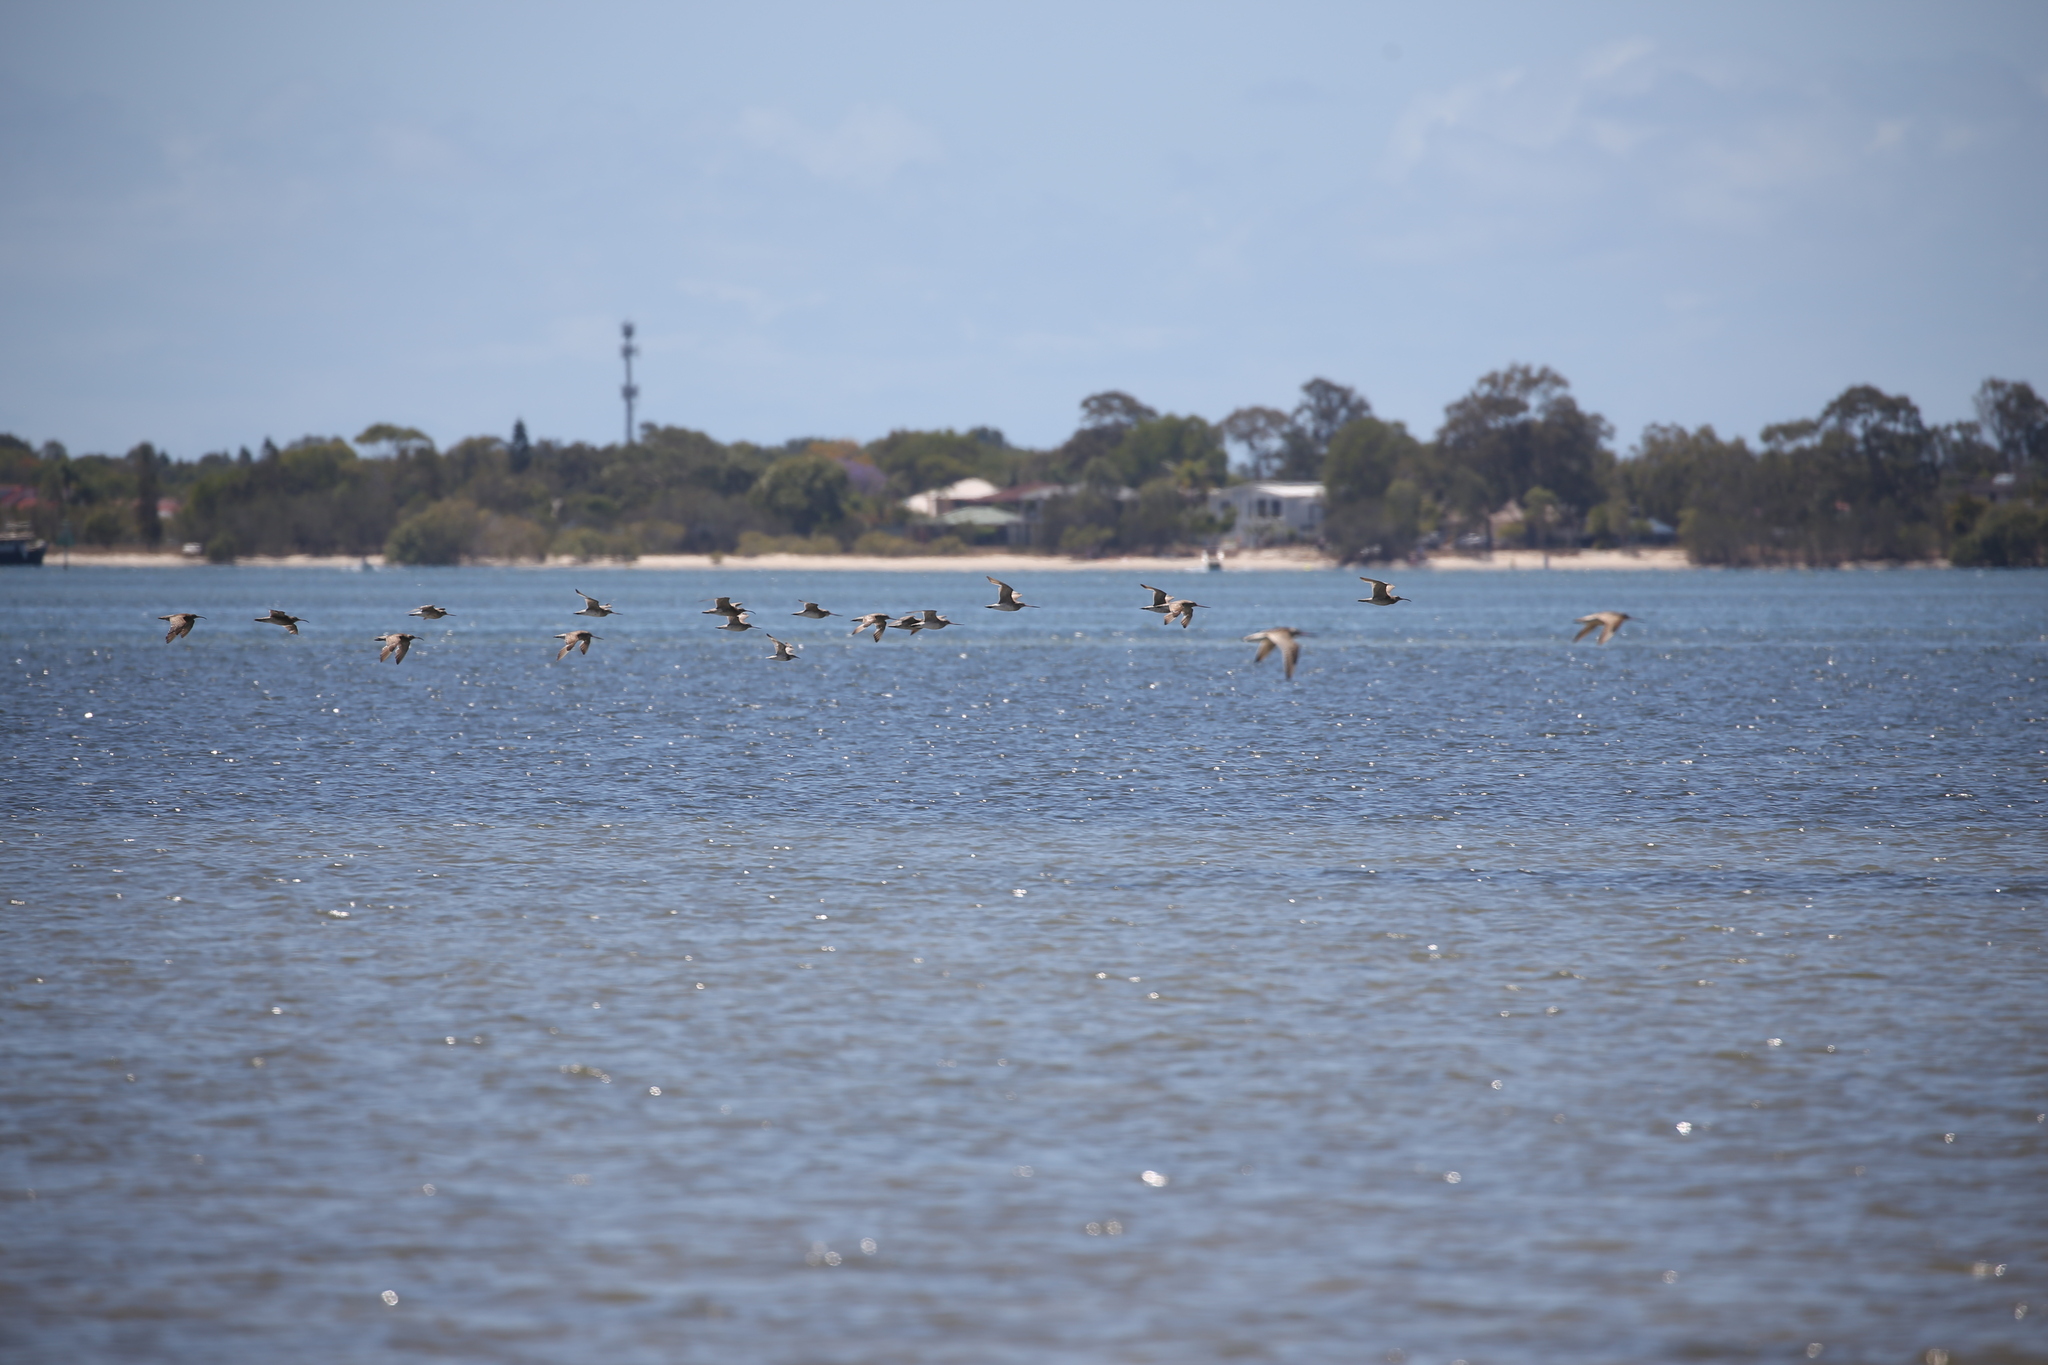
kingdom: Animalia
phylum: Chordata
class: Aves
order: Charadriiformes
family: Scolopacidae
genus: Limosa
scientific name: Limosa lapponica
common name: Bar-tailed godwit
